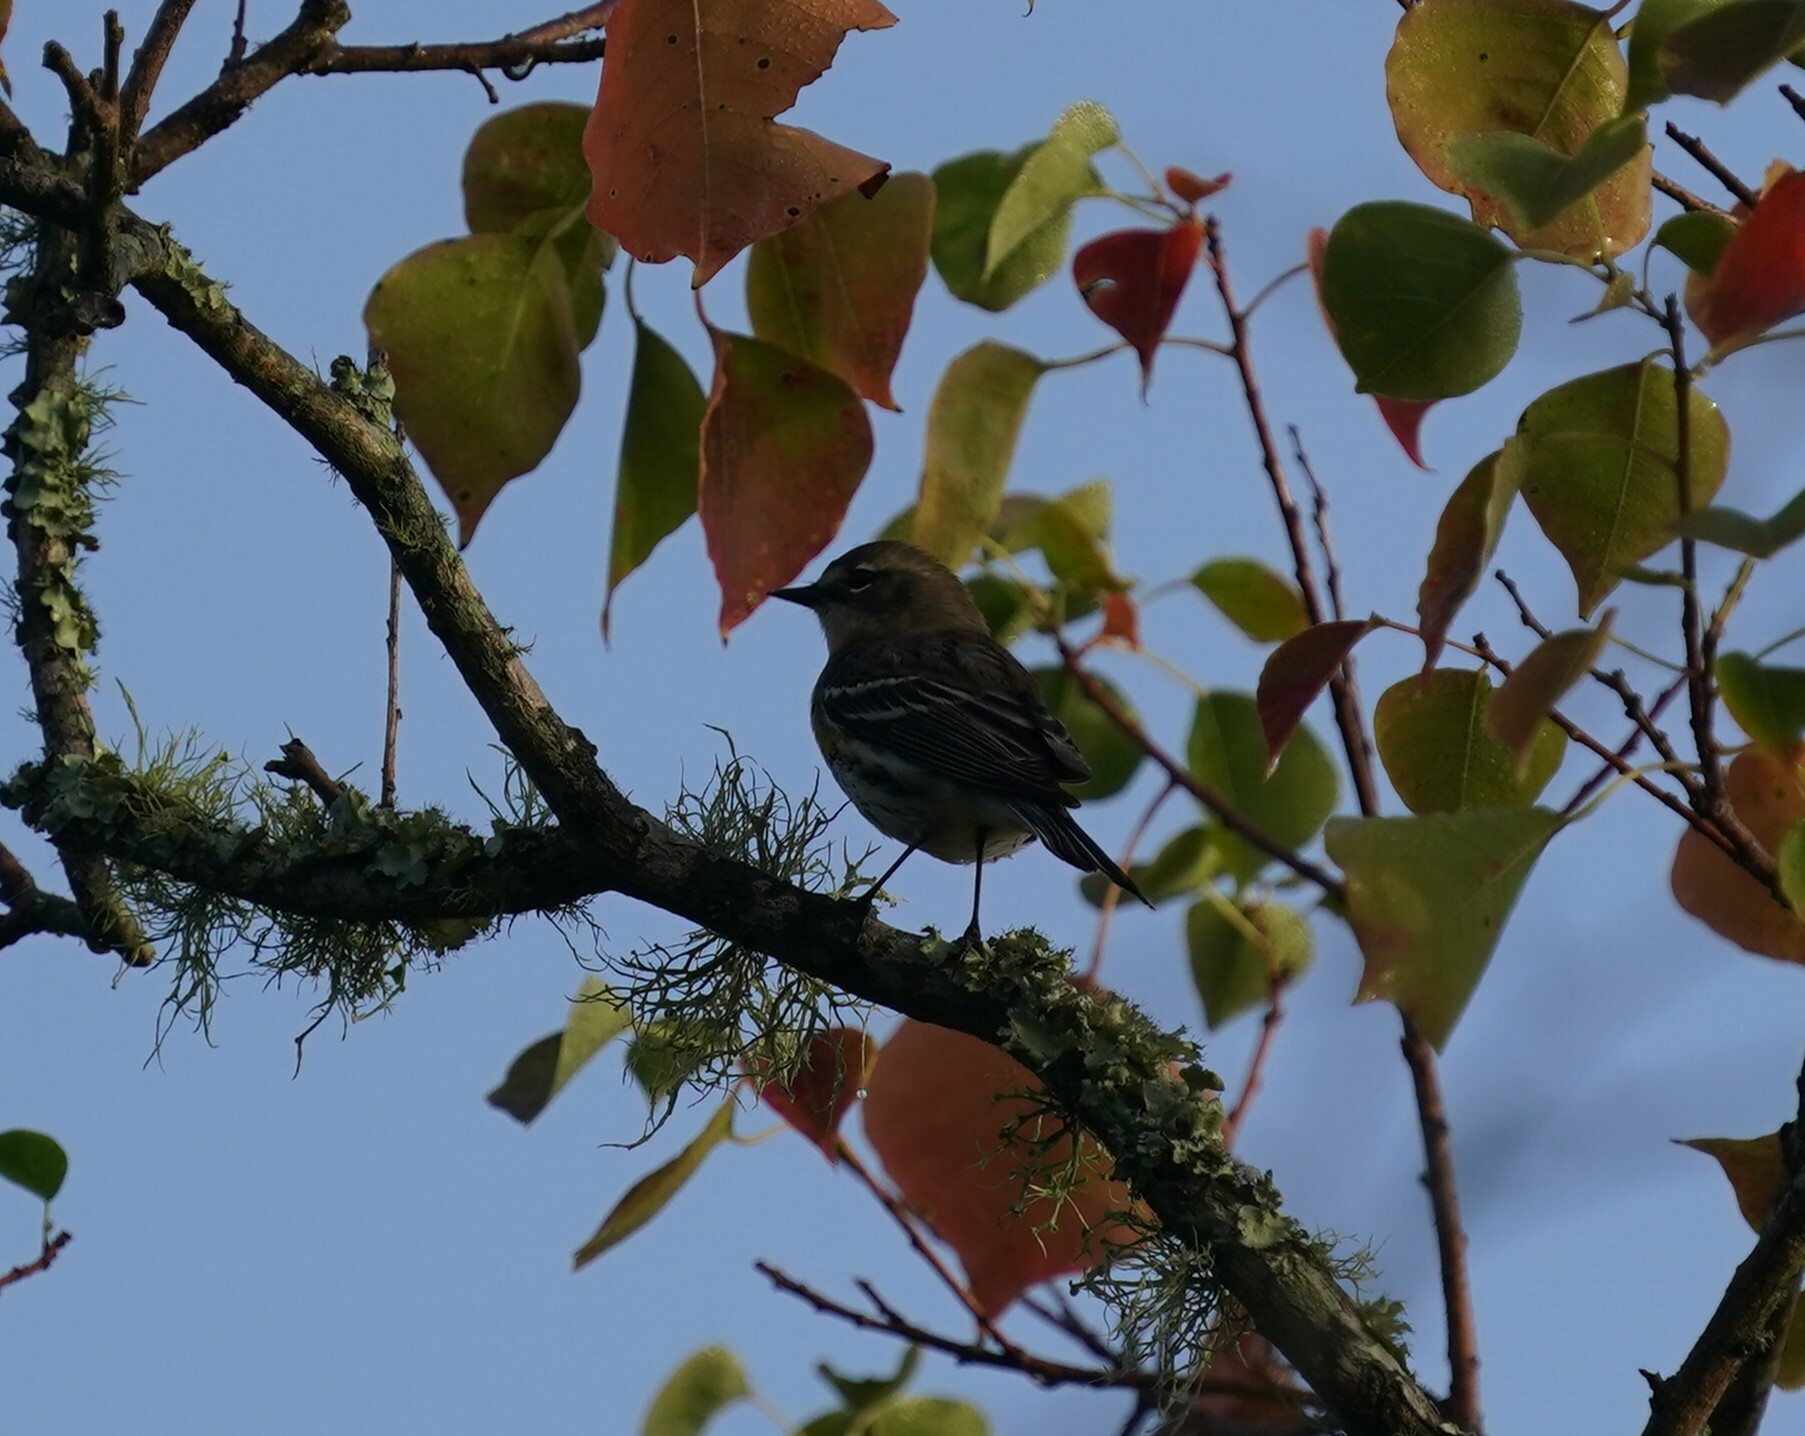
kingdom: Animalia
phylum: Chordata
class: Aves
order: Passeriformes
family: Parulidae
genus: Setophaga
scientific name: Setophaga coronata
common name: Myrtle warbler
